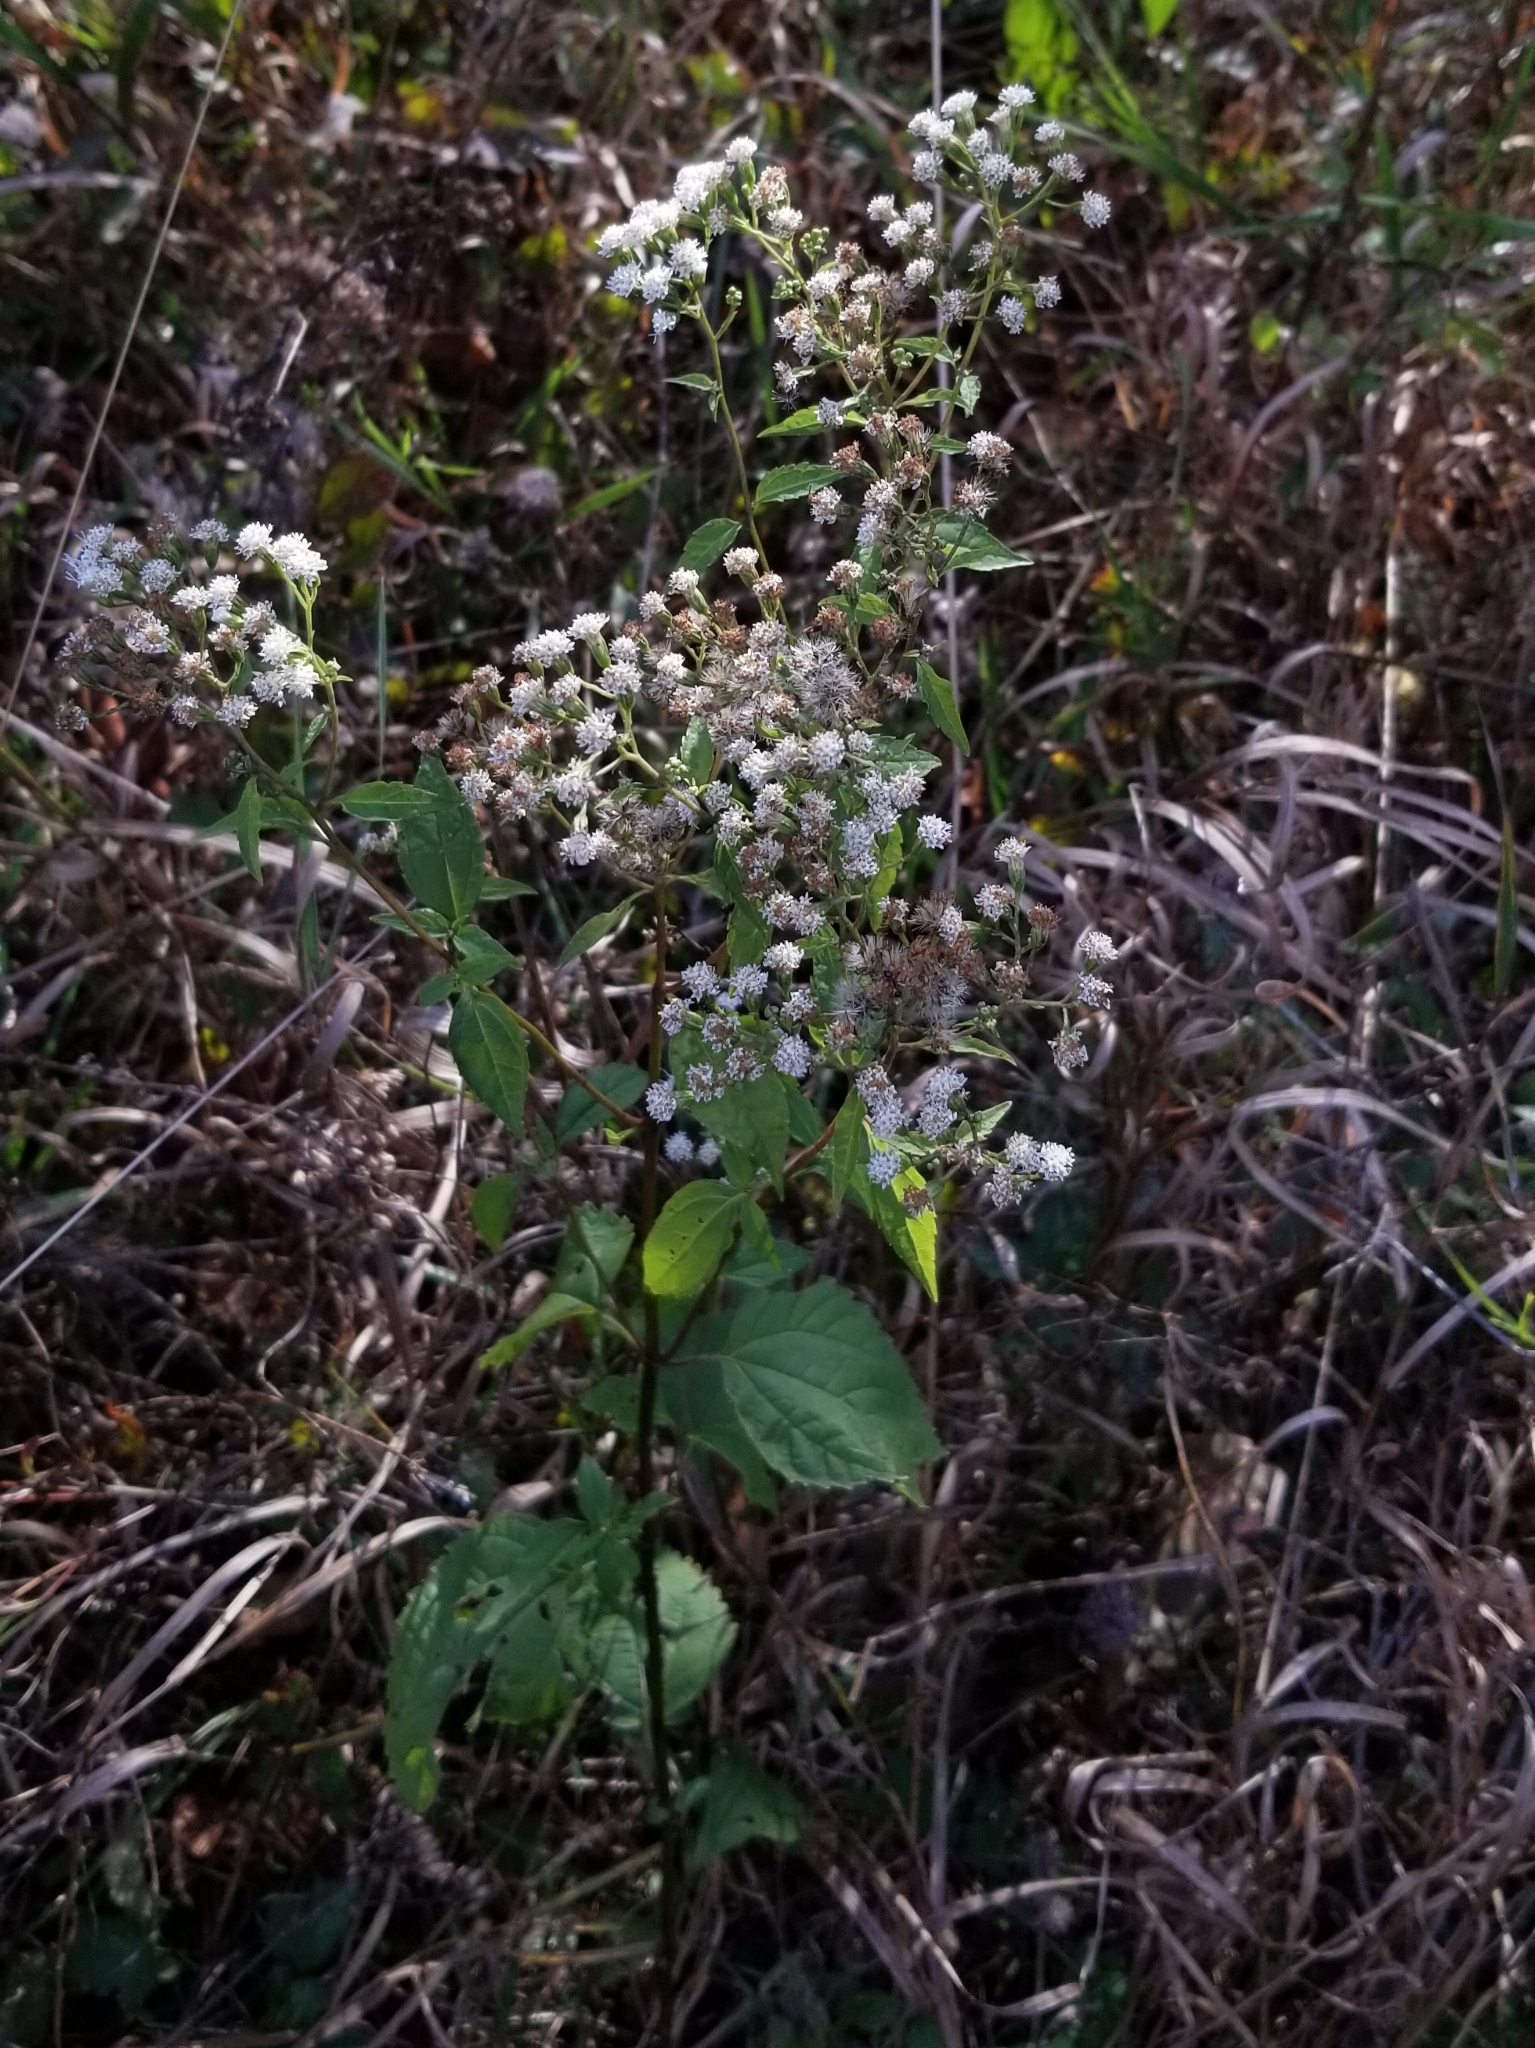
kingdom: Plantae
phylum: Tracheophyta
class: Magnoliopsida
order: Asterales
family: Asteraceae
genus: Ageratina
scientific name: Ageratina altissima
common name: White snakeroot
